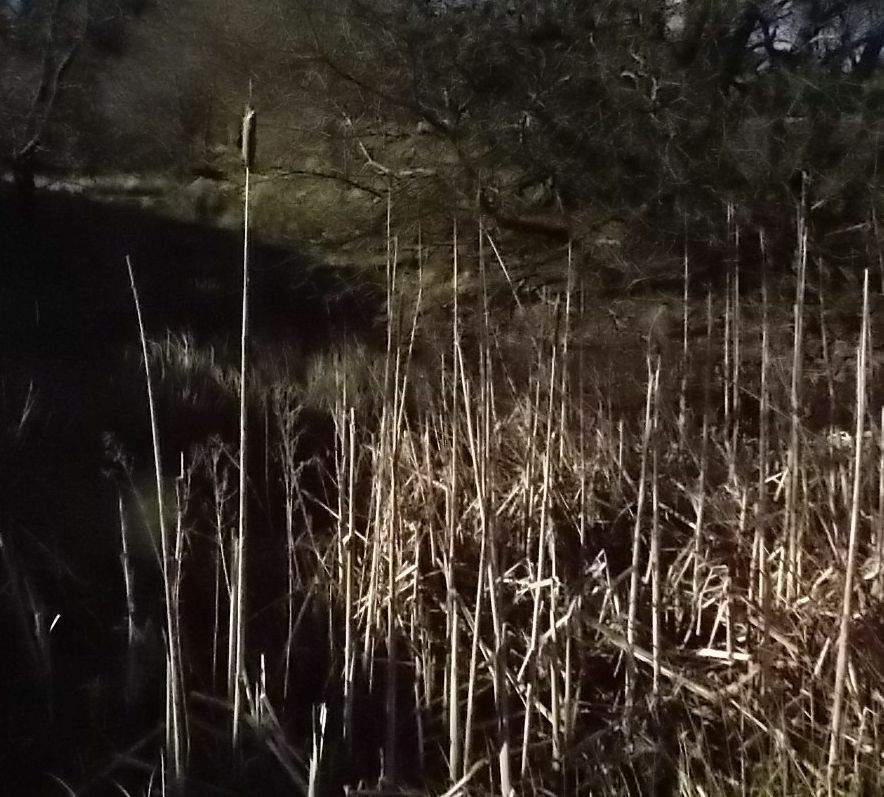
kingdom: Plantae
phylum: Tracheophyta
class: Liliopsida
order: Poales
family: Typhaceae
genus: Typha
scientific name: Typha latifolia
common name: Broadleaf cattail
